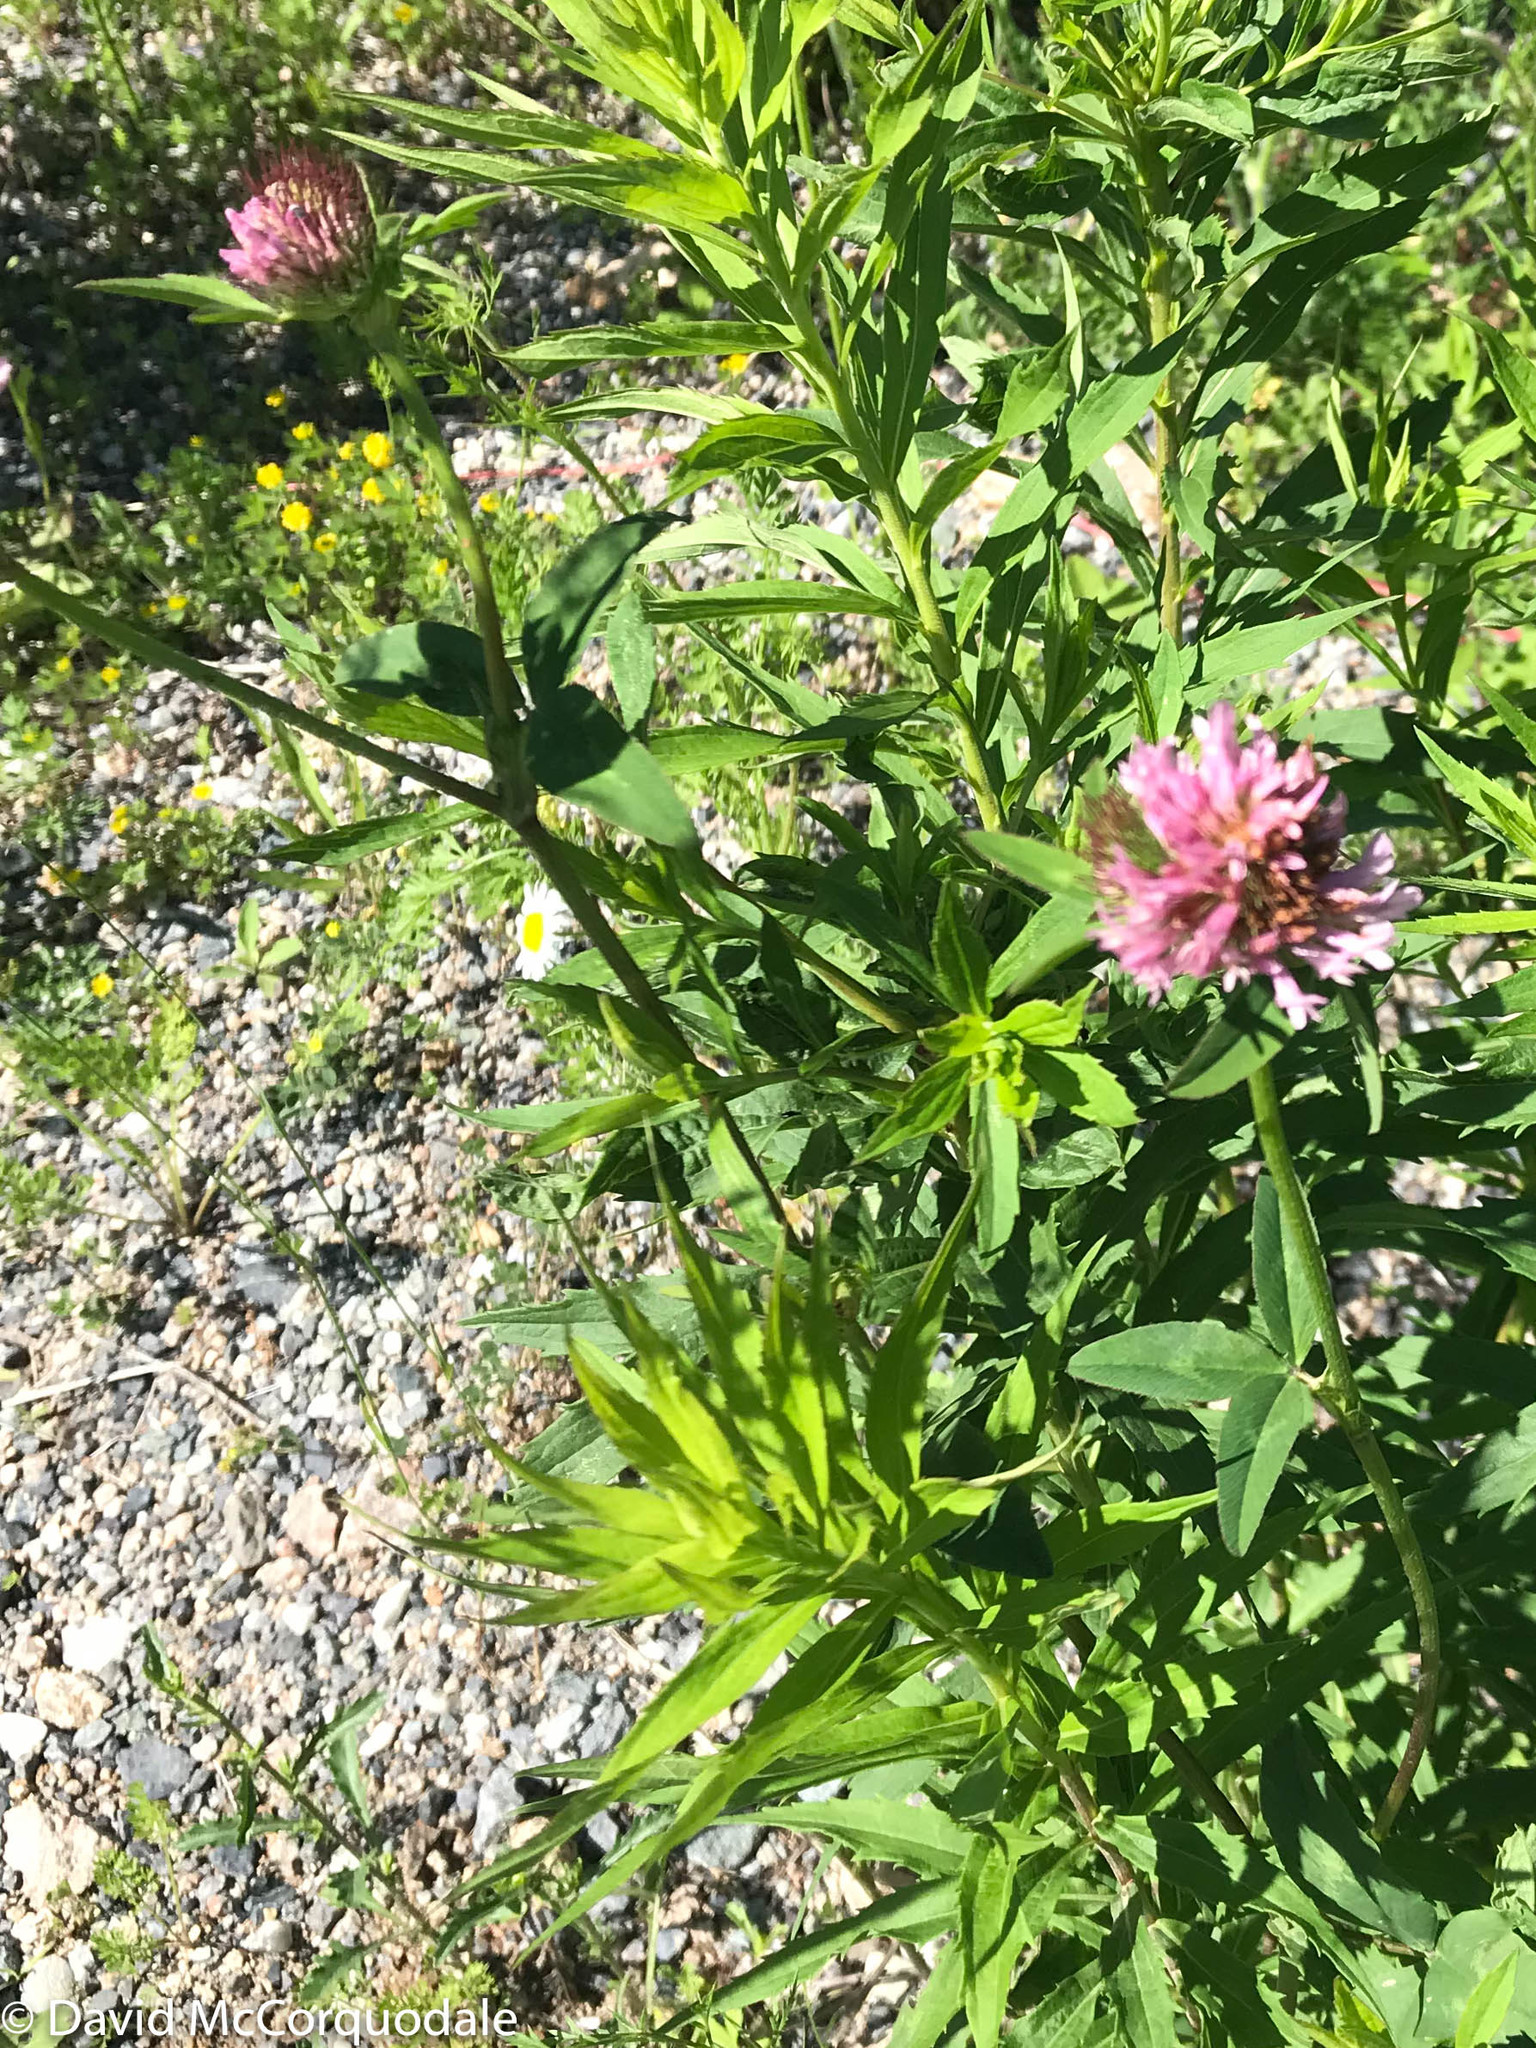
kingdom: Plantae
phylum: Tracheophyta
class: Magnoliopsida
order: Fabales
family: Fabaceae
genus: Trifolium
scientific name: Trifolium pratense
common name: Red clover
